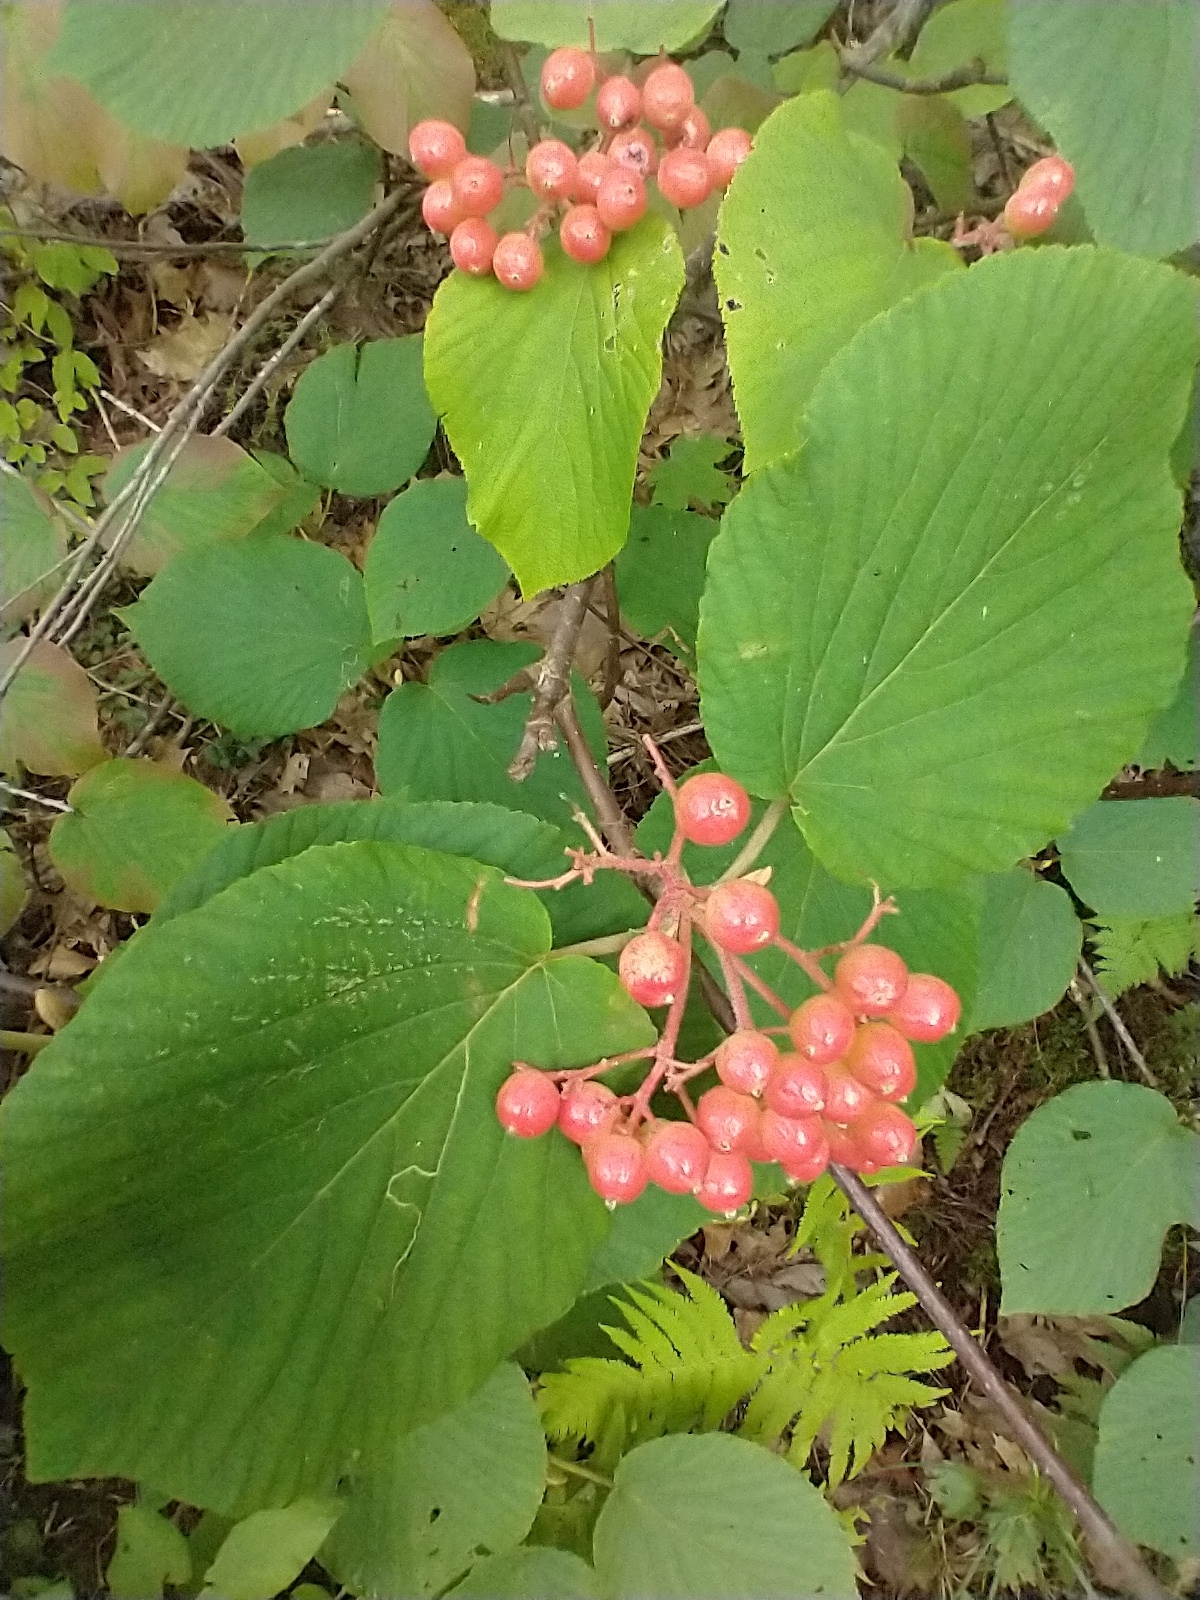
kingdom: Plantae
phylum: Tracheophyta
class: Magnoliopsida
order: Dipsacales
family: Viburnaceae
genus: Viburnum
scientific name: Viburnum lantanoides
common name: Hobblebush
